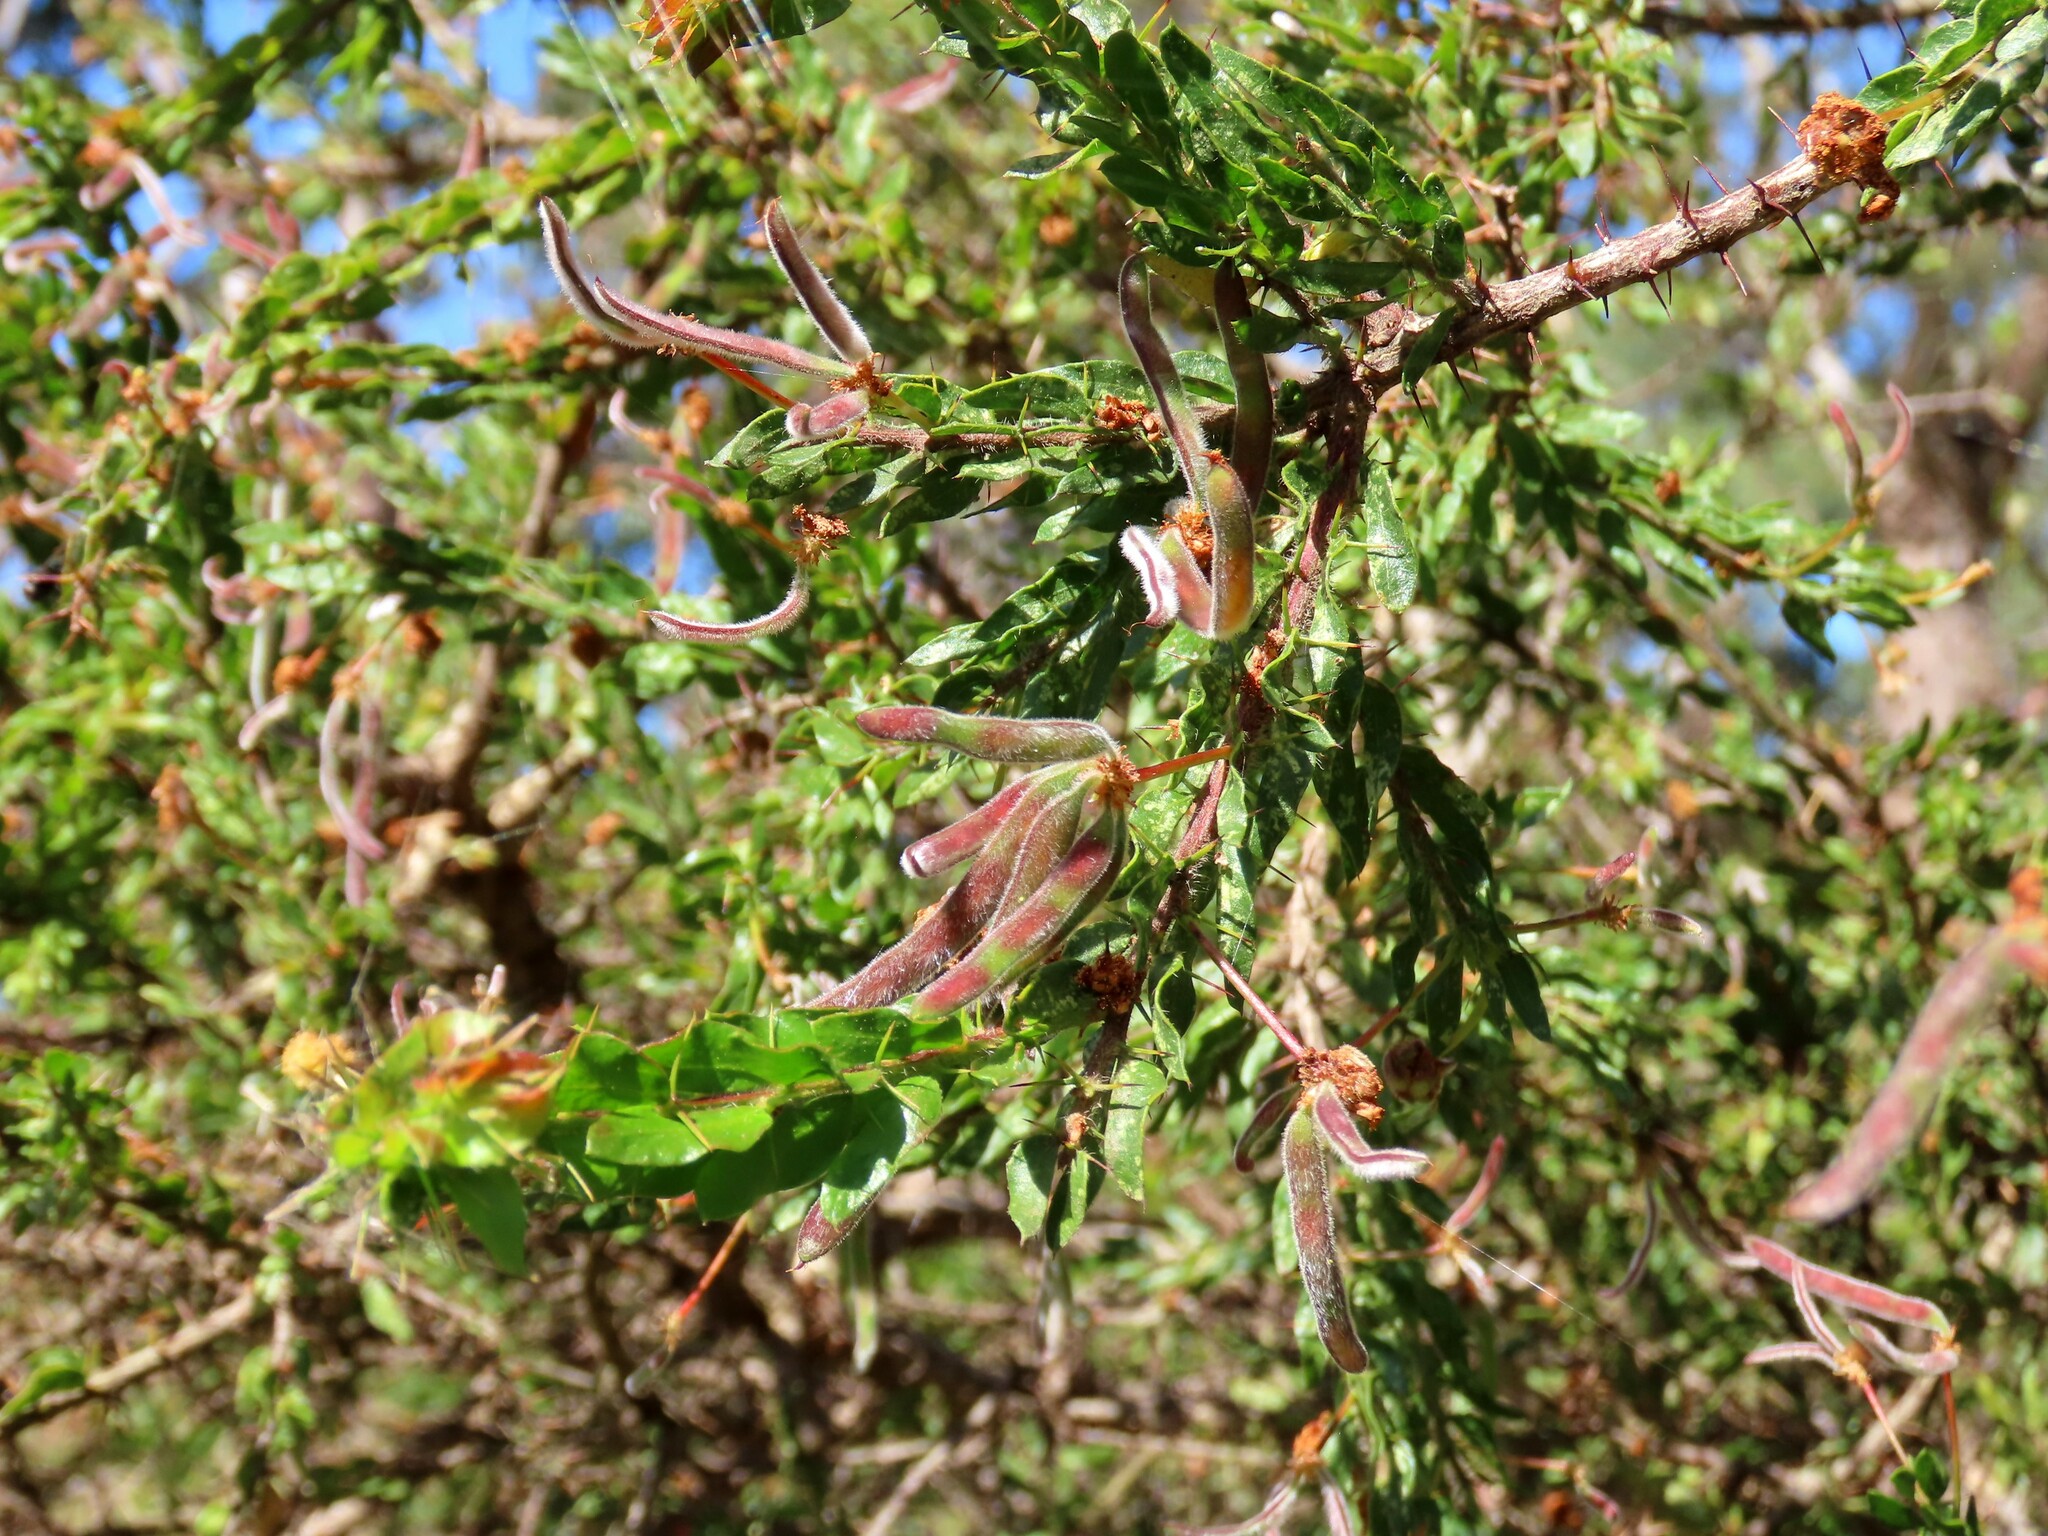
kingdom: Plantae
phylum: Tracheophyta
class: Magnoliopsida
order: Fabales
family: Fabaceae
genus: Acacia
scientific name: Acacia paradoxa
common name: Paradox acacia
